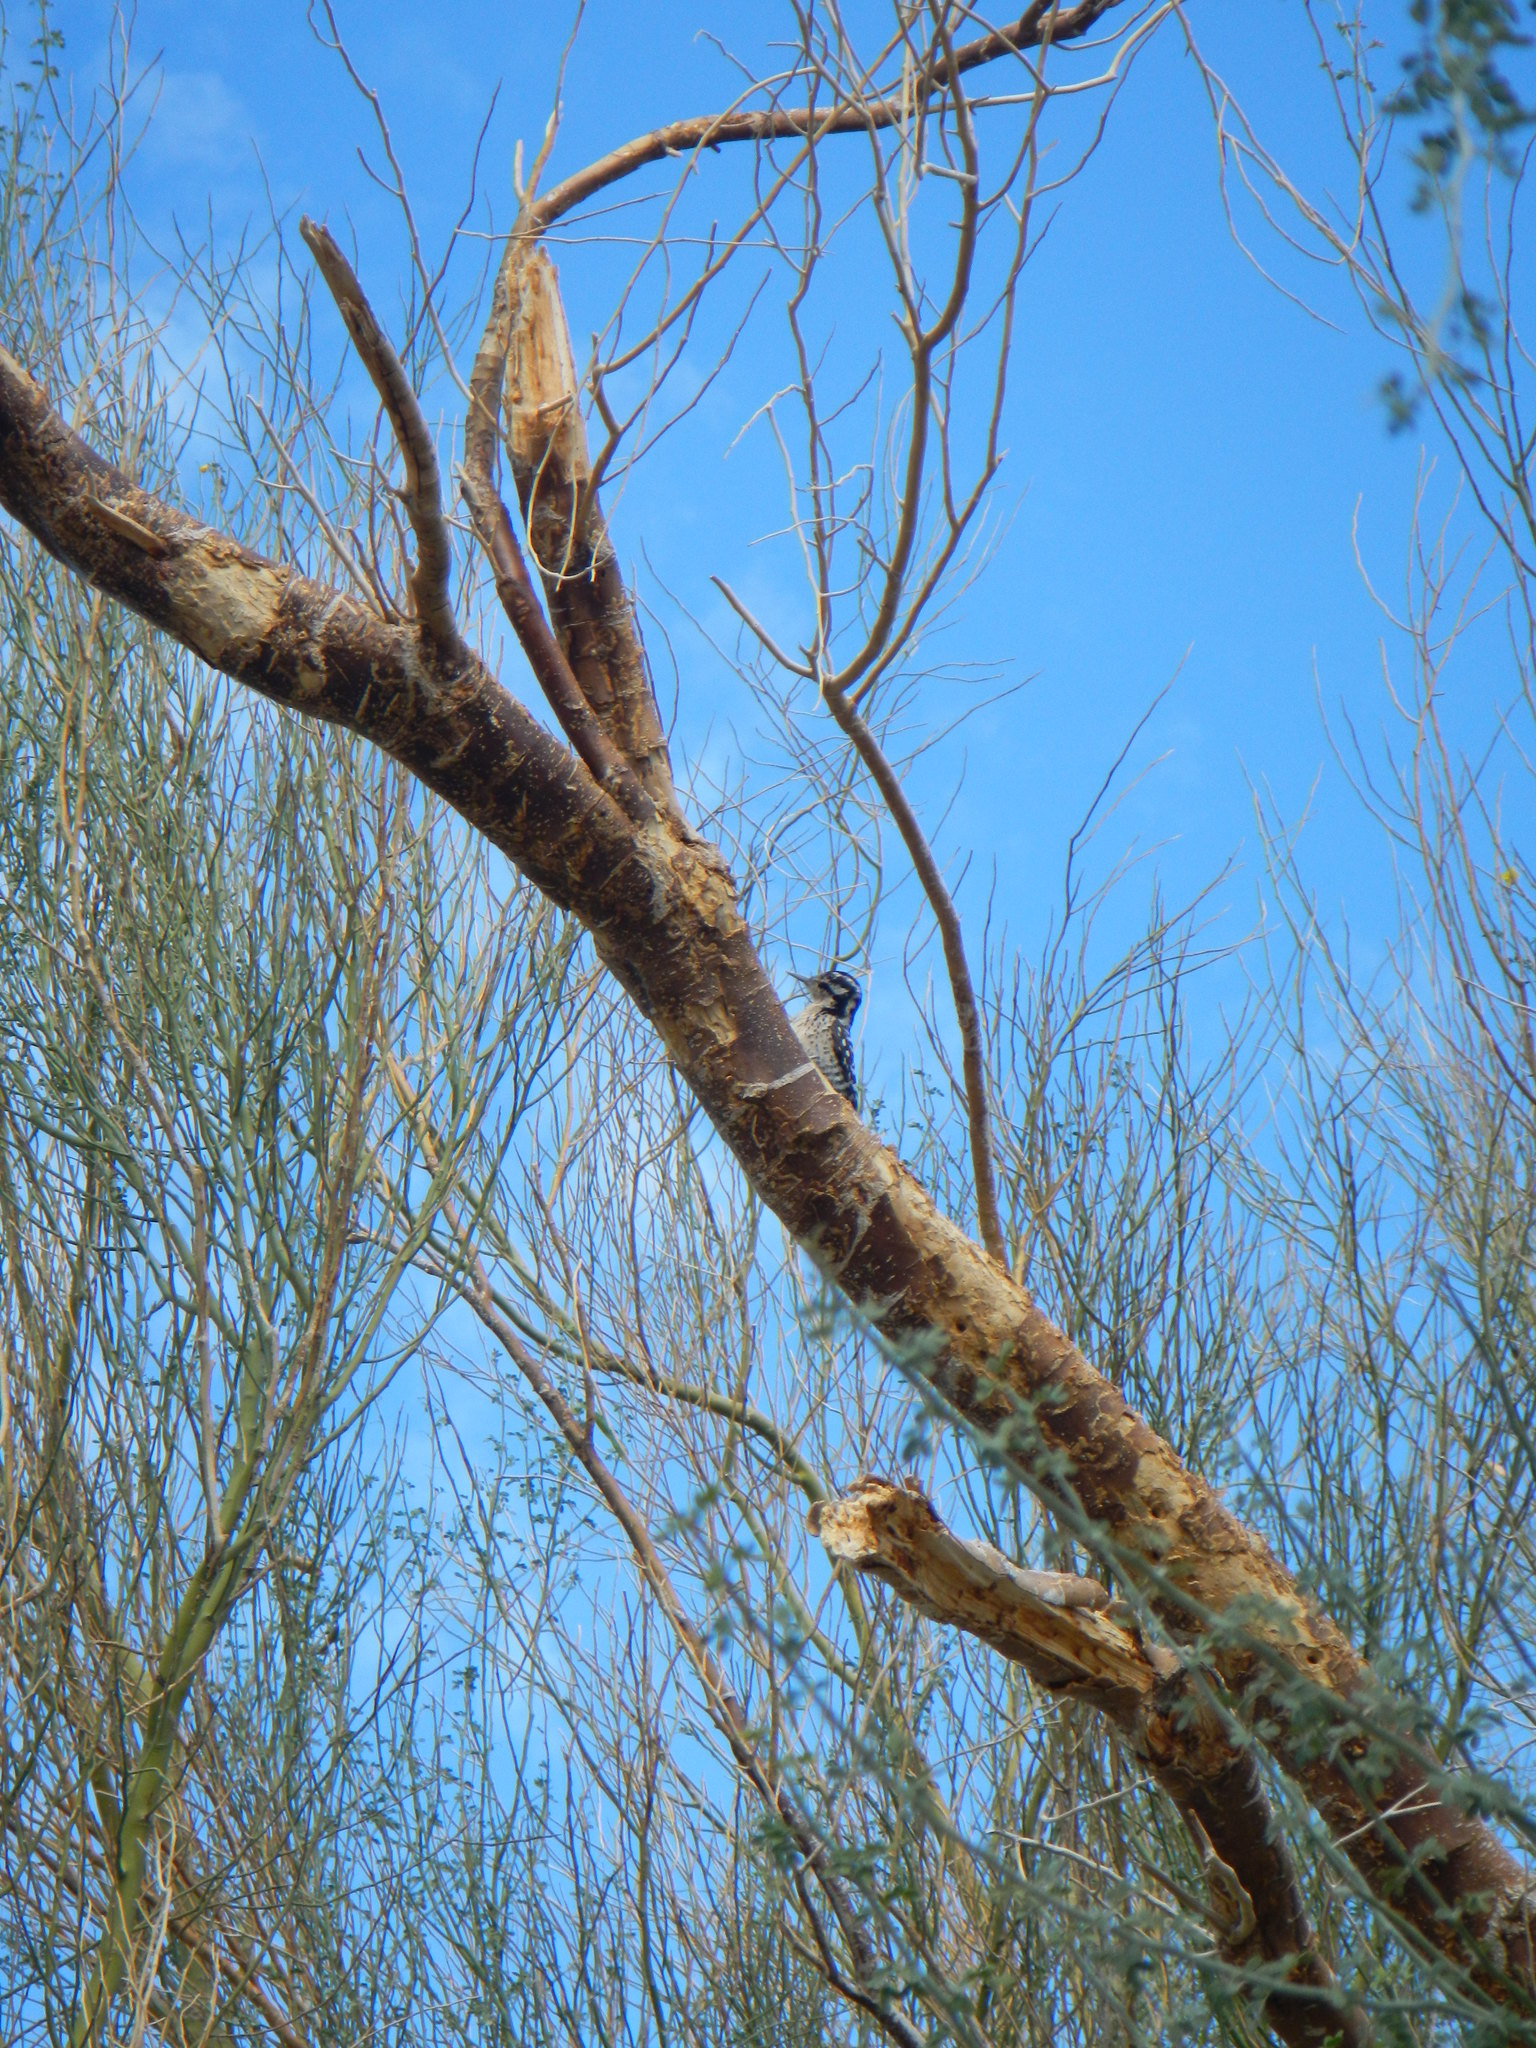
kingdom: Animalia
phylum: Chordata
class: Aves
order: Piciformes
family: Picidae
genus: Dryobates
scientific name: Dryobates scalaris
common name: Ladder-backed woodpecker
